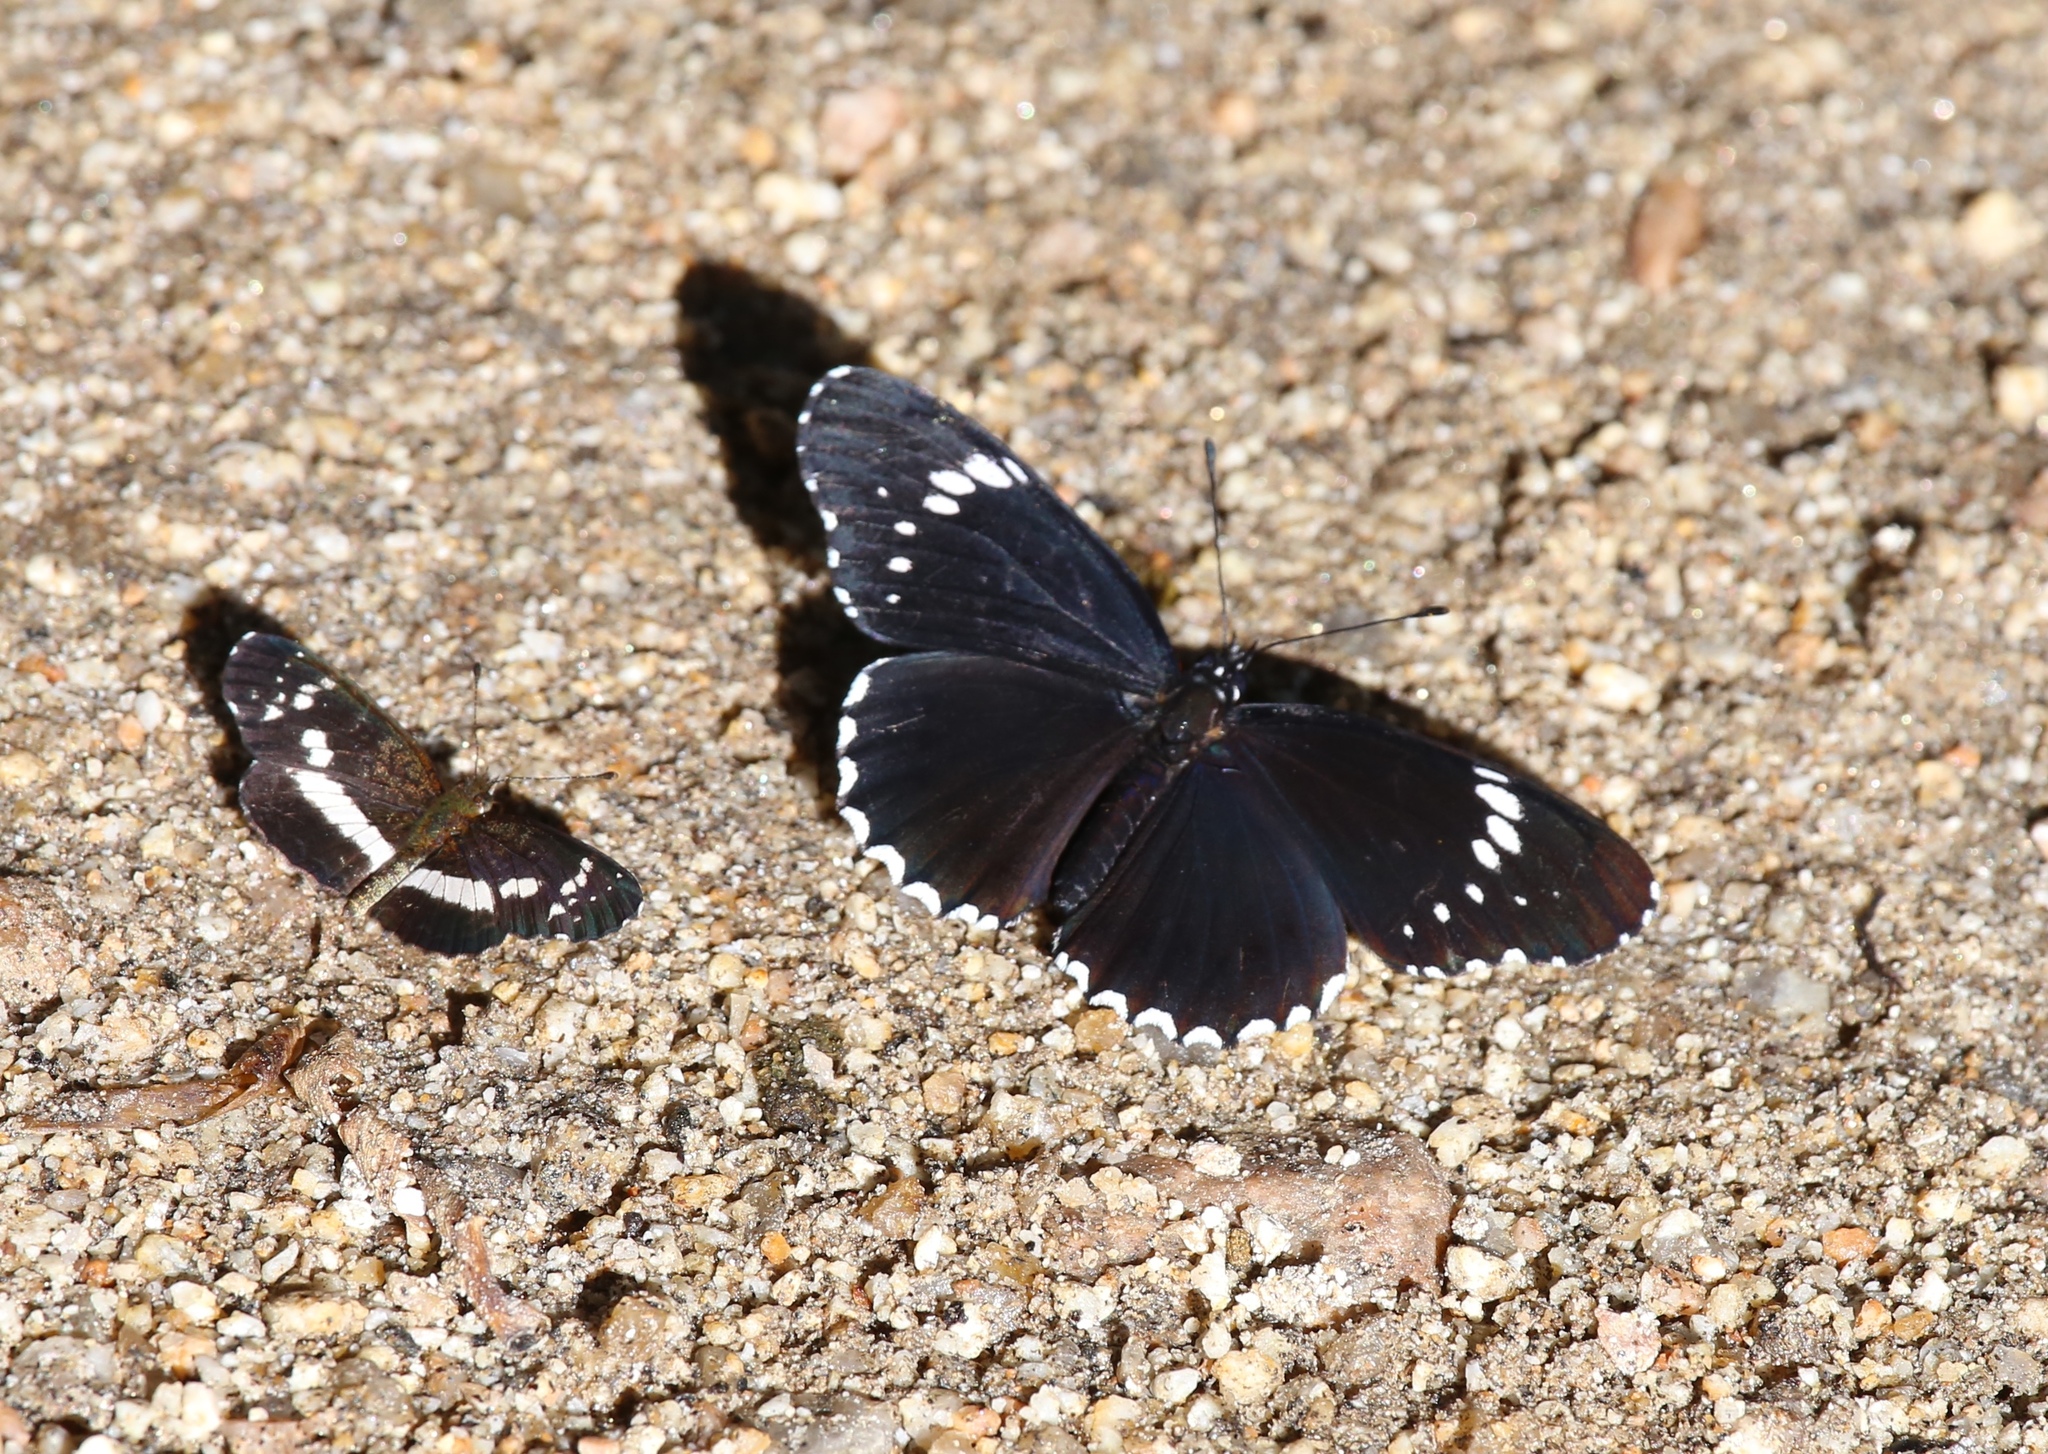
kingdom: Animalia
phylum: Arthropoda
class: Insecta
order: Lepidoptera
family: Nymphalidae
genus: Chlosyne
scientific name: Chlosyne hippodrome
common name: Simple patch
